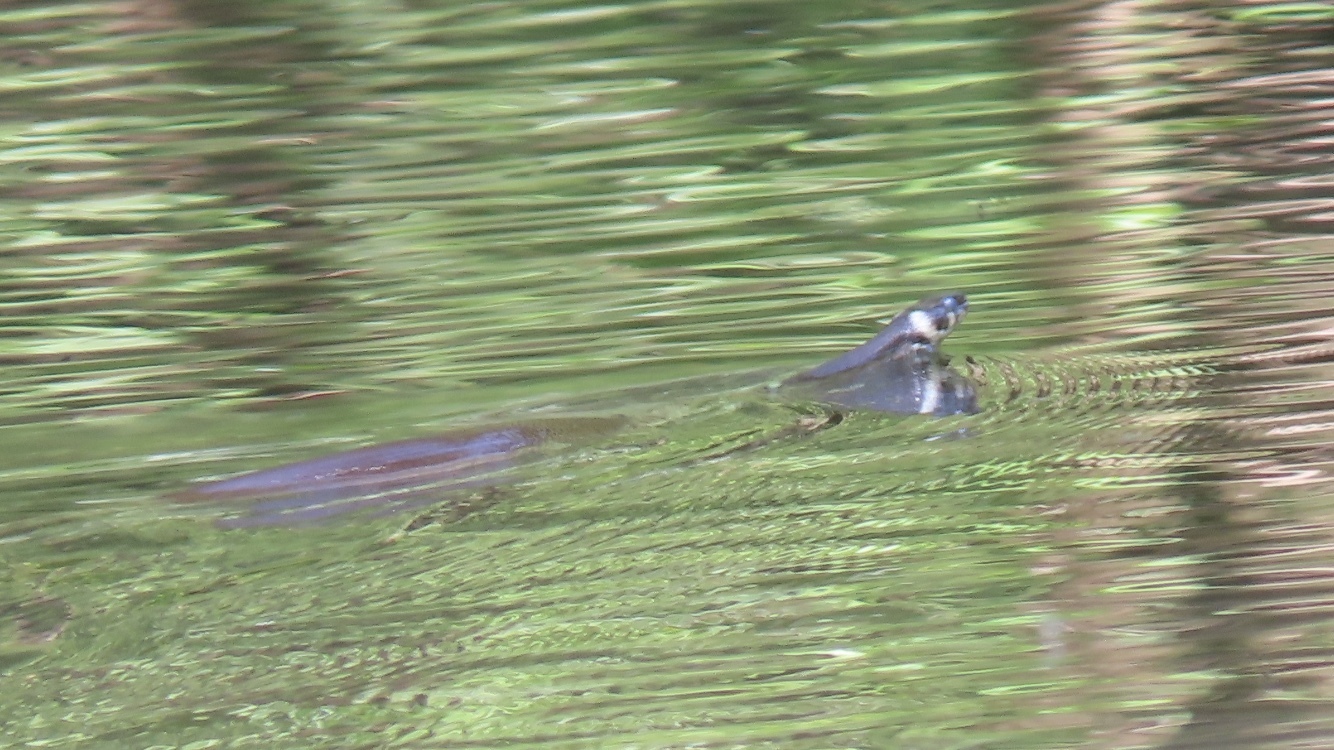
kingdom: Animalia
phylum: Chordata
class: Squamata
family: Colubridae
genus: Natrix
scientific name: Natrix natrix
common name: Grass snake
